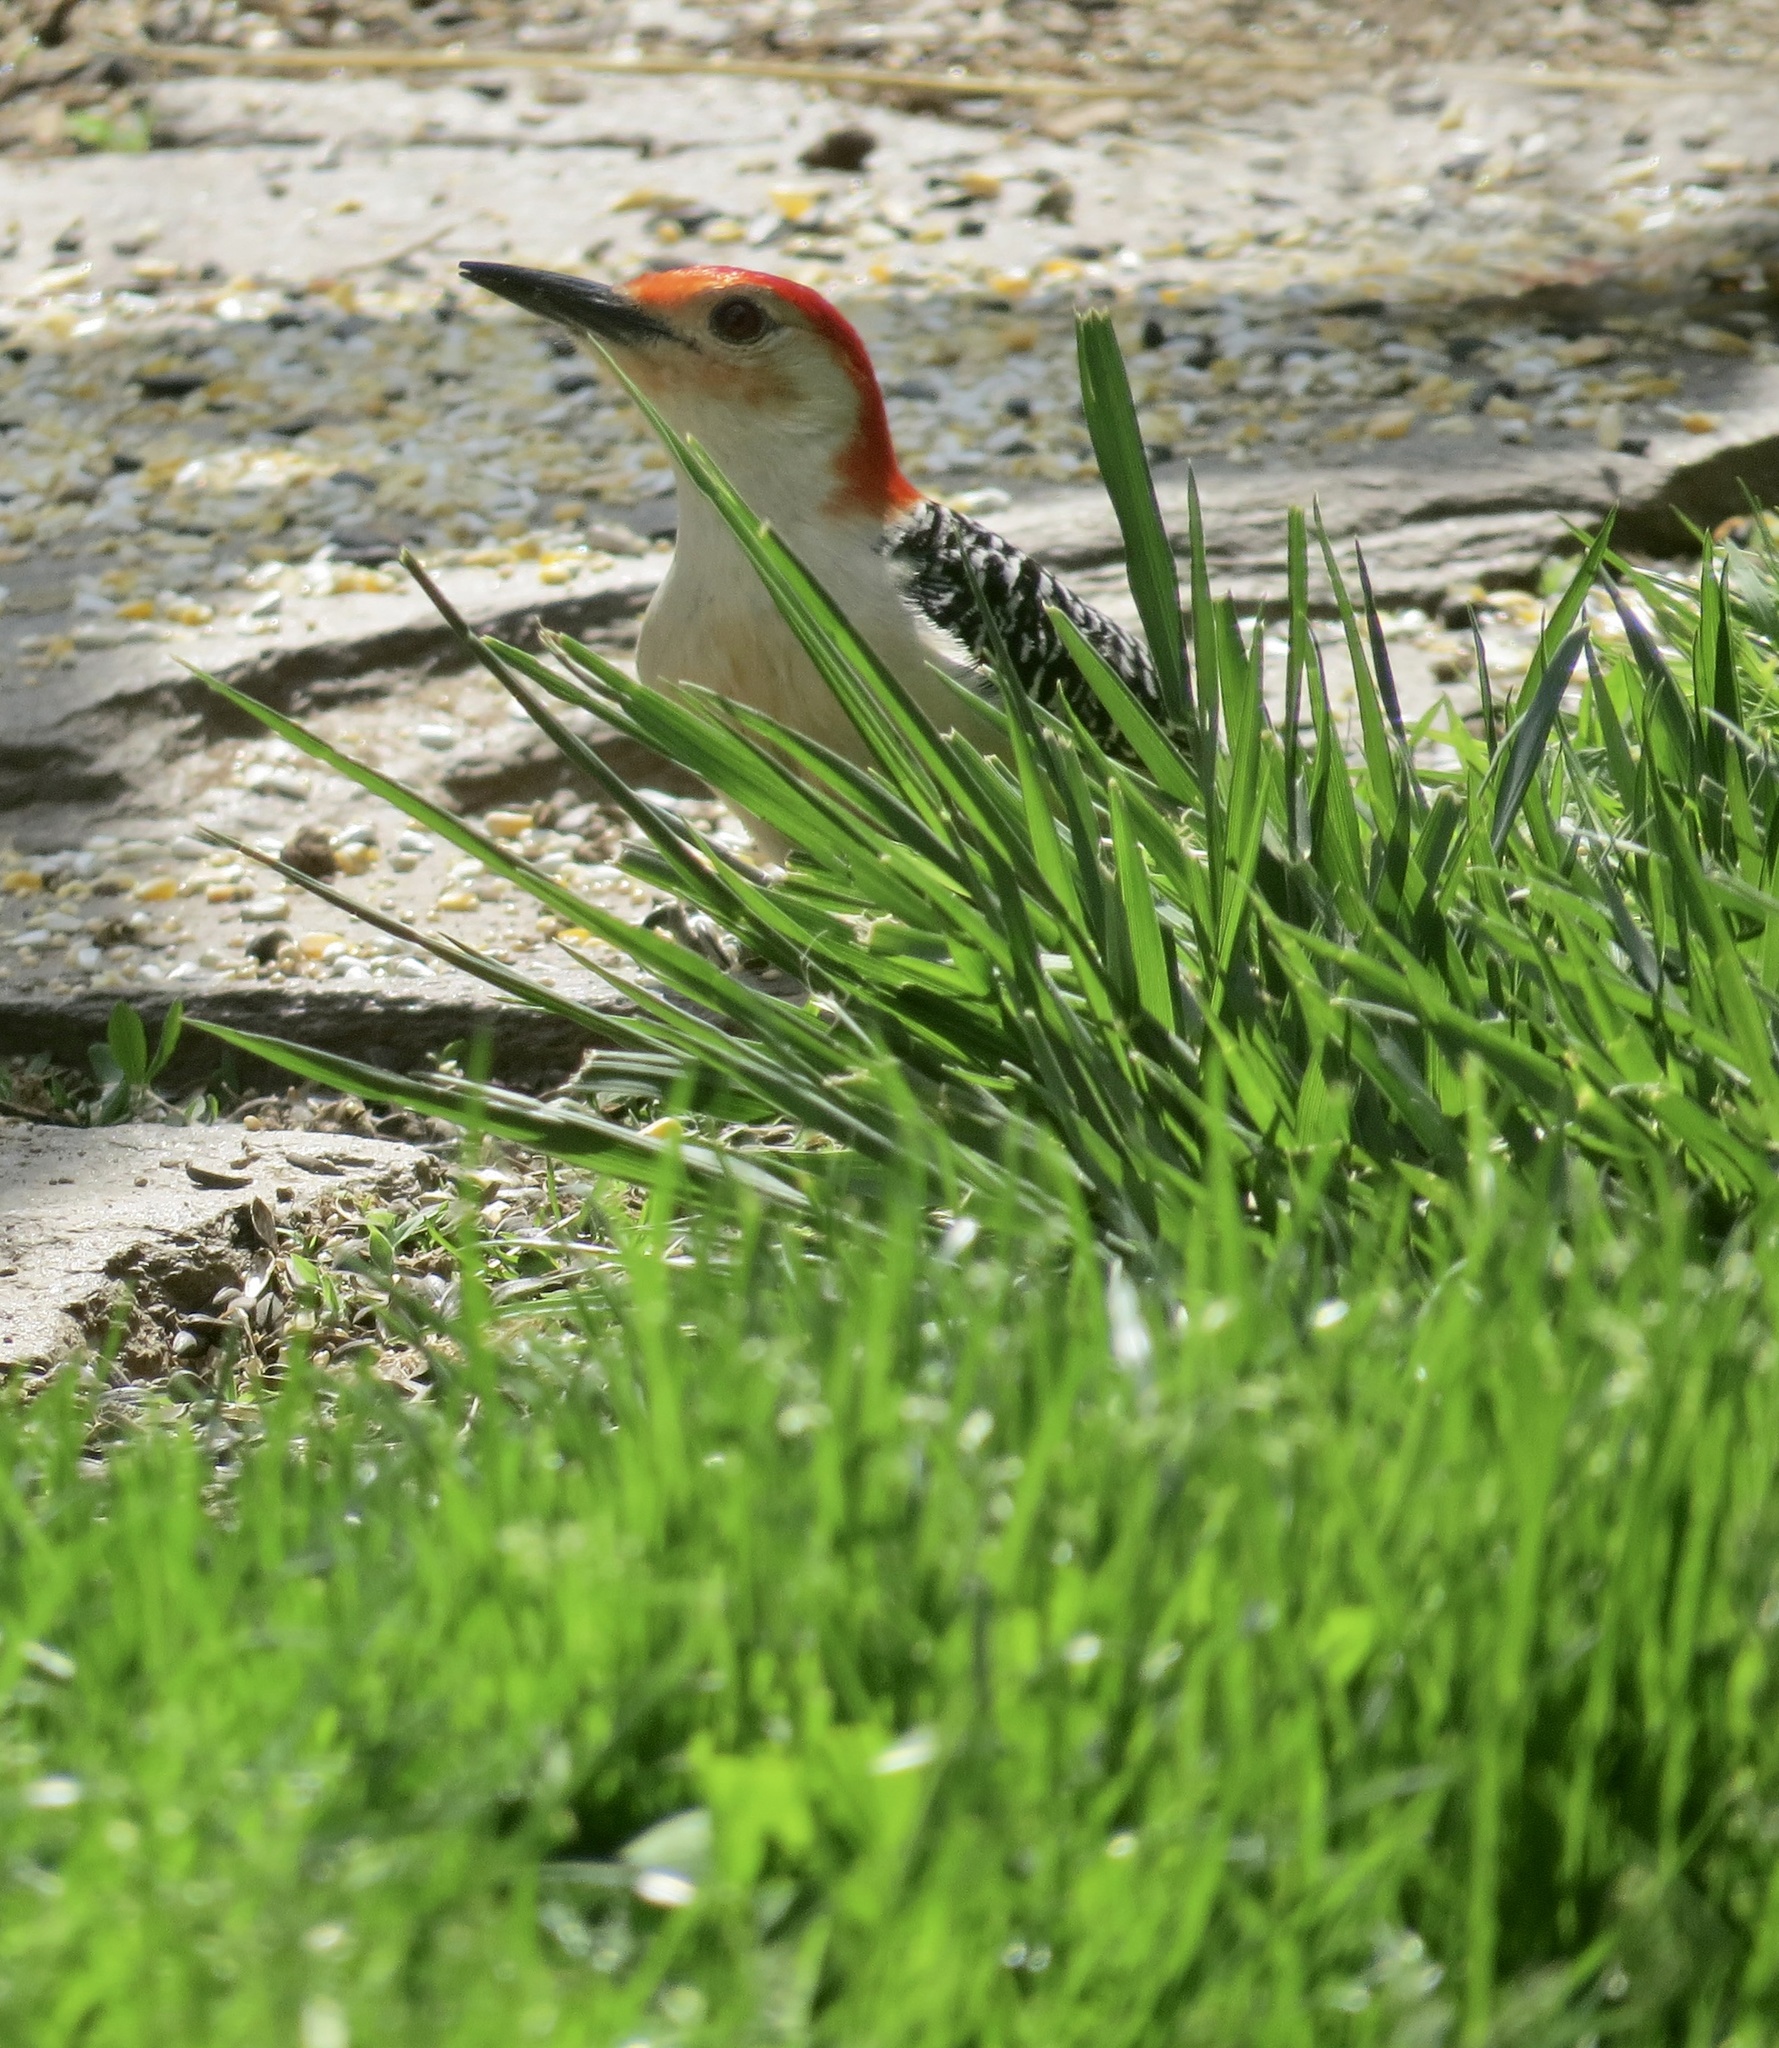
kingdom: Animalia
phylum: Chordata
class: Aves
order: Piciformes
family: Picidae
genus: Melanerpes
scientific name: Melanerpes carolinus
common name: Red-bellied woodpecker
